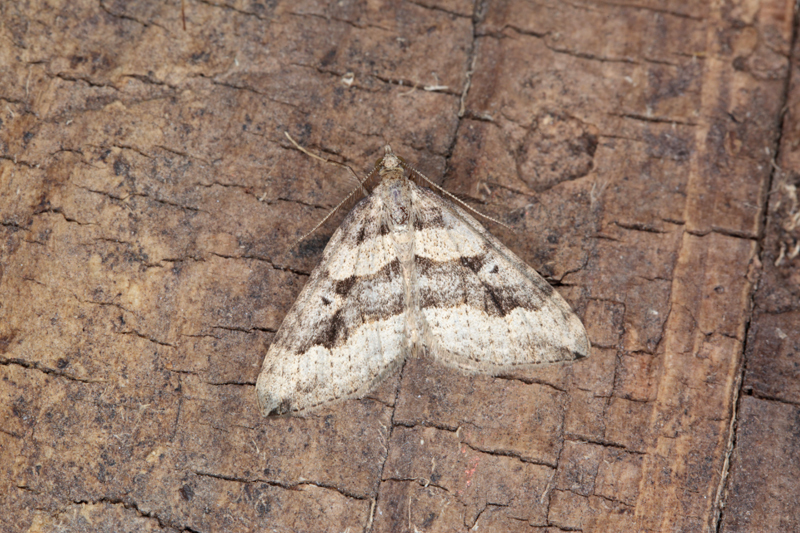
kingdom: Animalia
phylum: Arthropoda
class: Insecta
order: Lepidoptera
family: Geometridae
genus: Epyaxa
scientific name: Epyaxa rosearia
